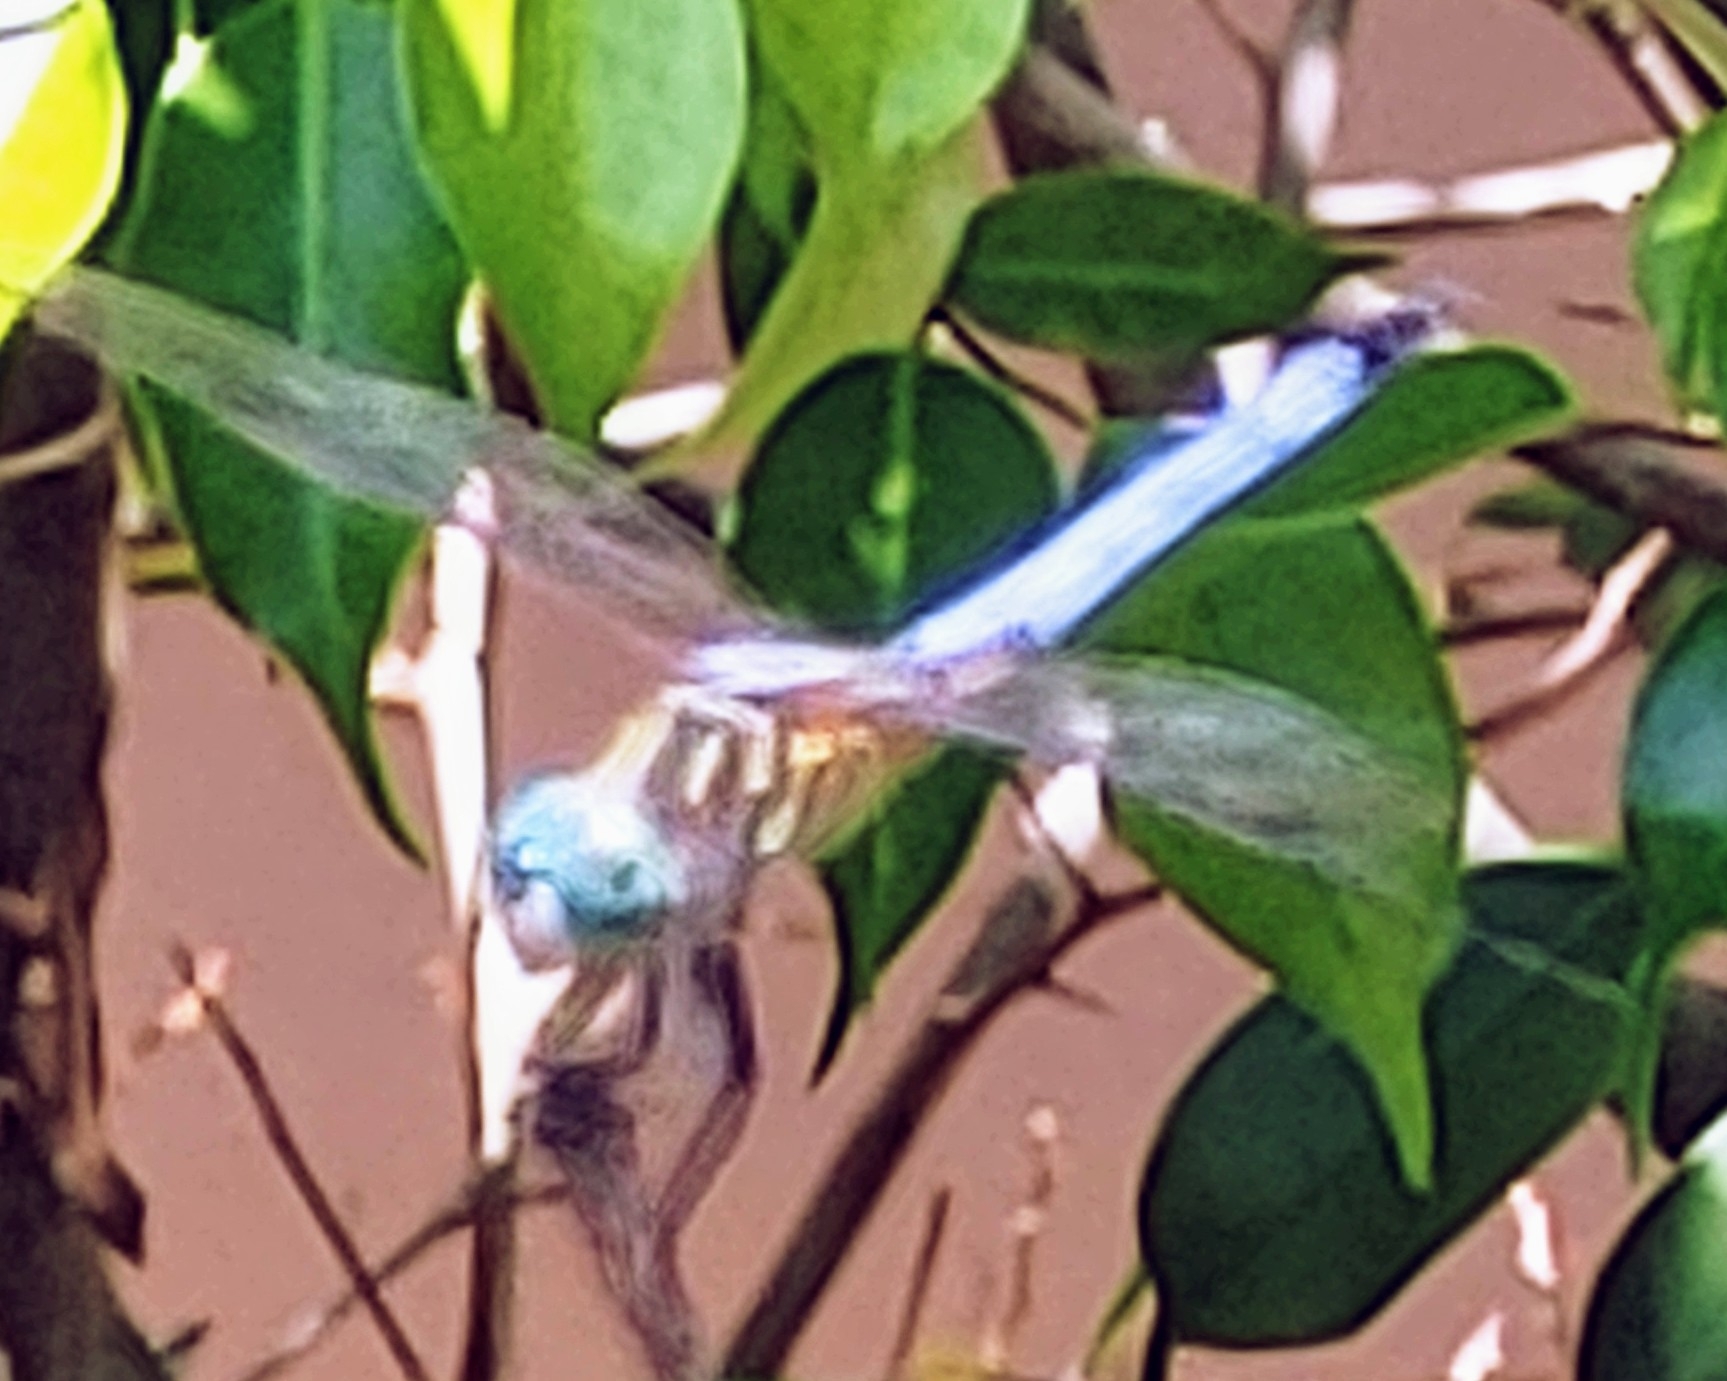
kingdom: Animalia
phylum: Arthropoda
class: Insecta
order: Odonata
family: Libellulidae
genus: Pachydiplax
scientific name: Pachydiplax longipennis
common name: Blue dasher
